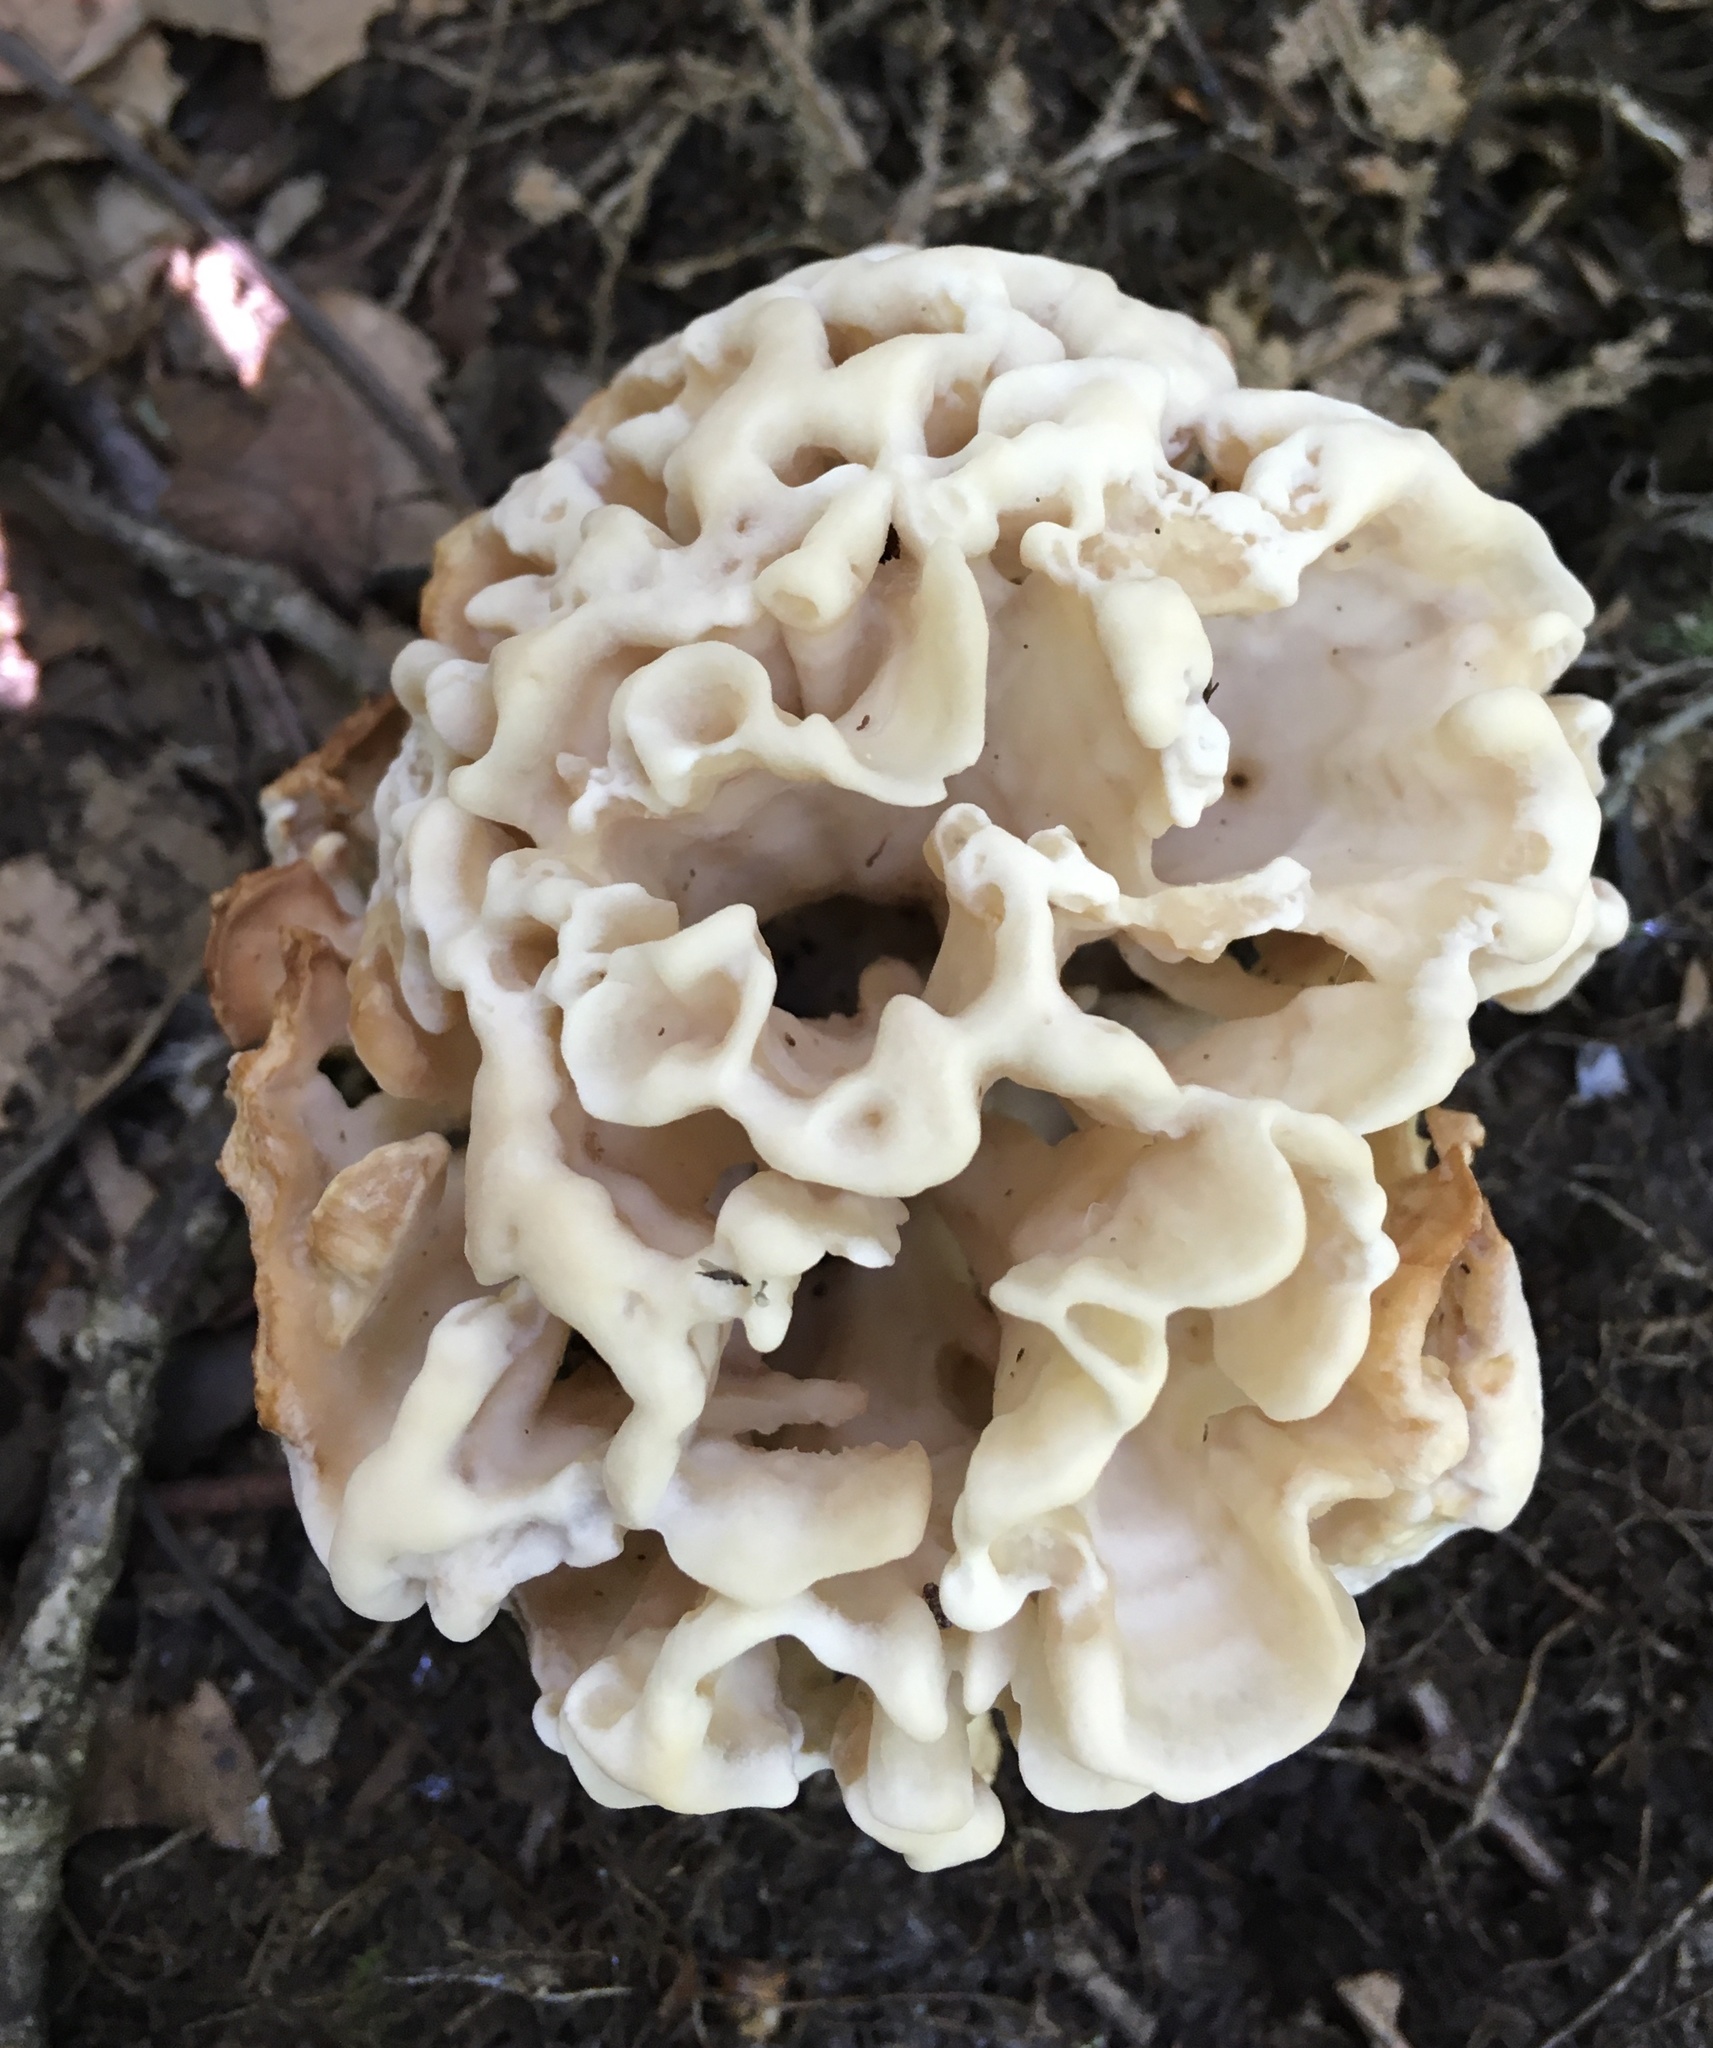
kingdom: Fungi
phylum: Basidiomycota
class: Agaricomycetes
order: Polyporales
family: Sparassidaceae
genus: Sparassis
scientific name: Sparassis spathulata
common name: Eastern cauliflower mushroom
